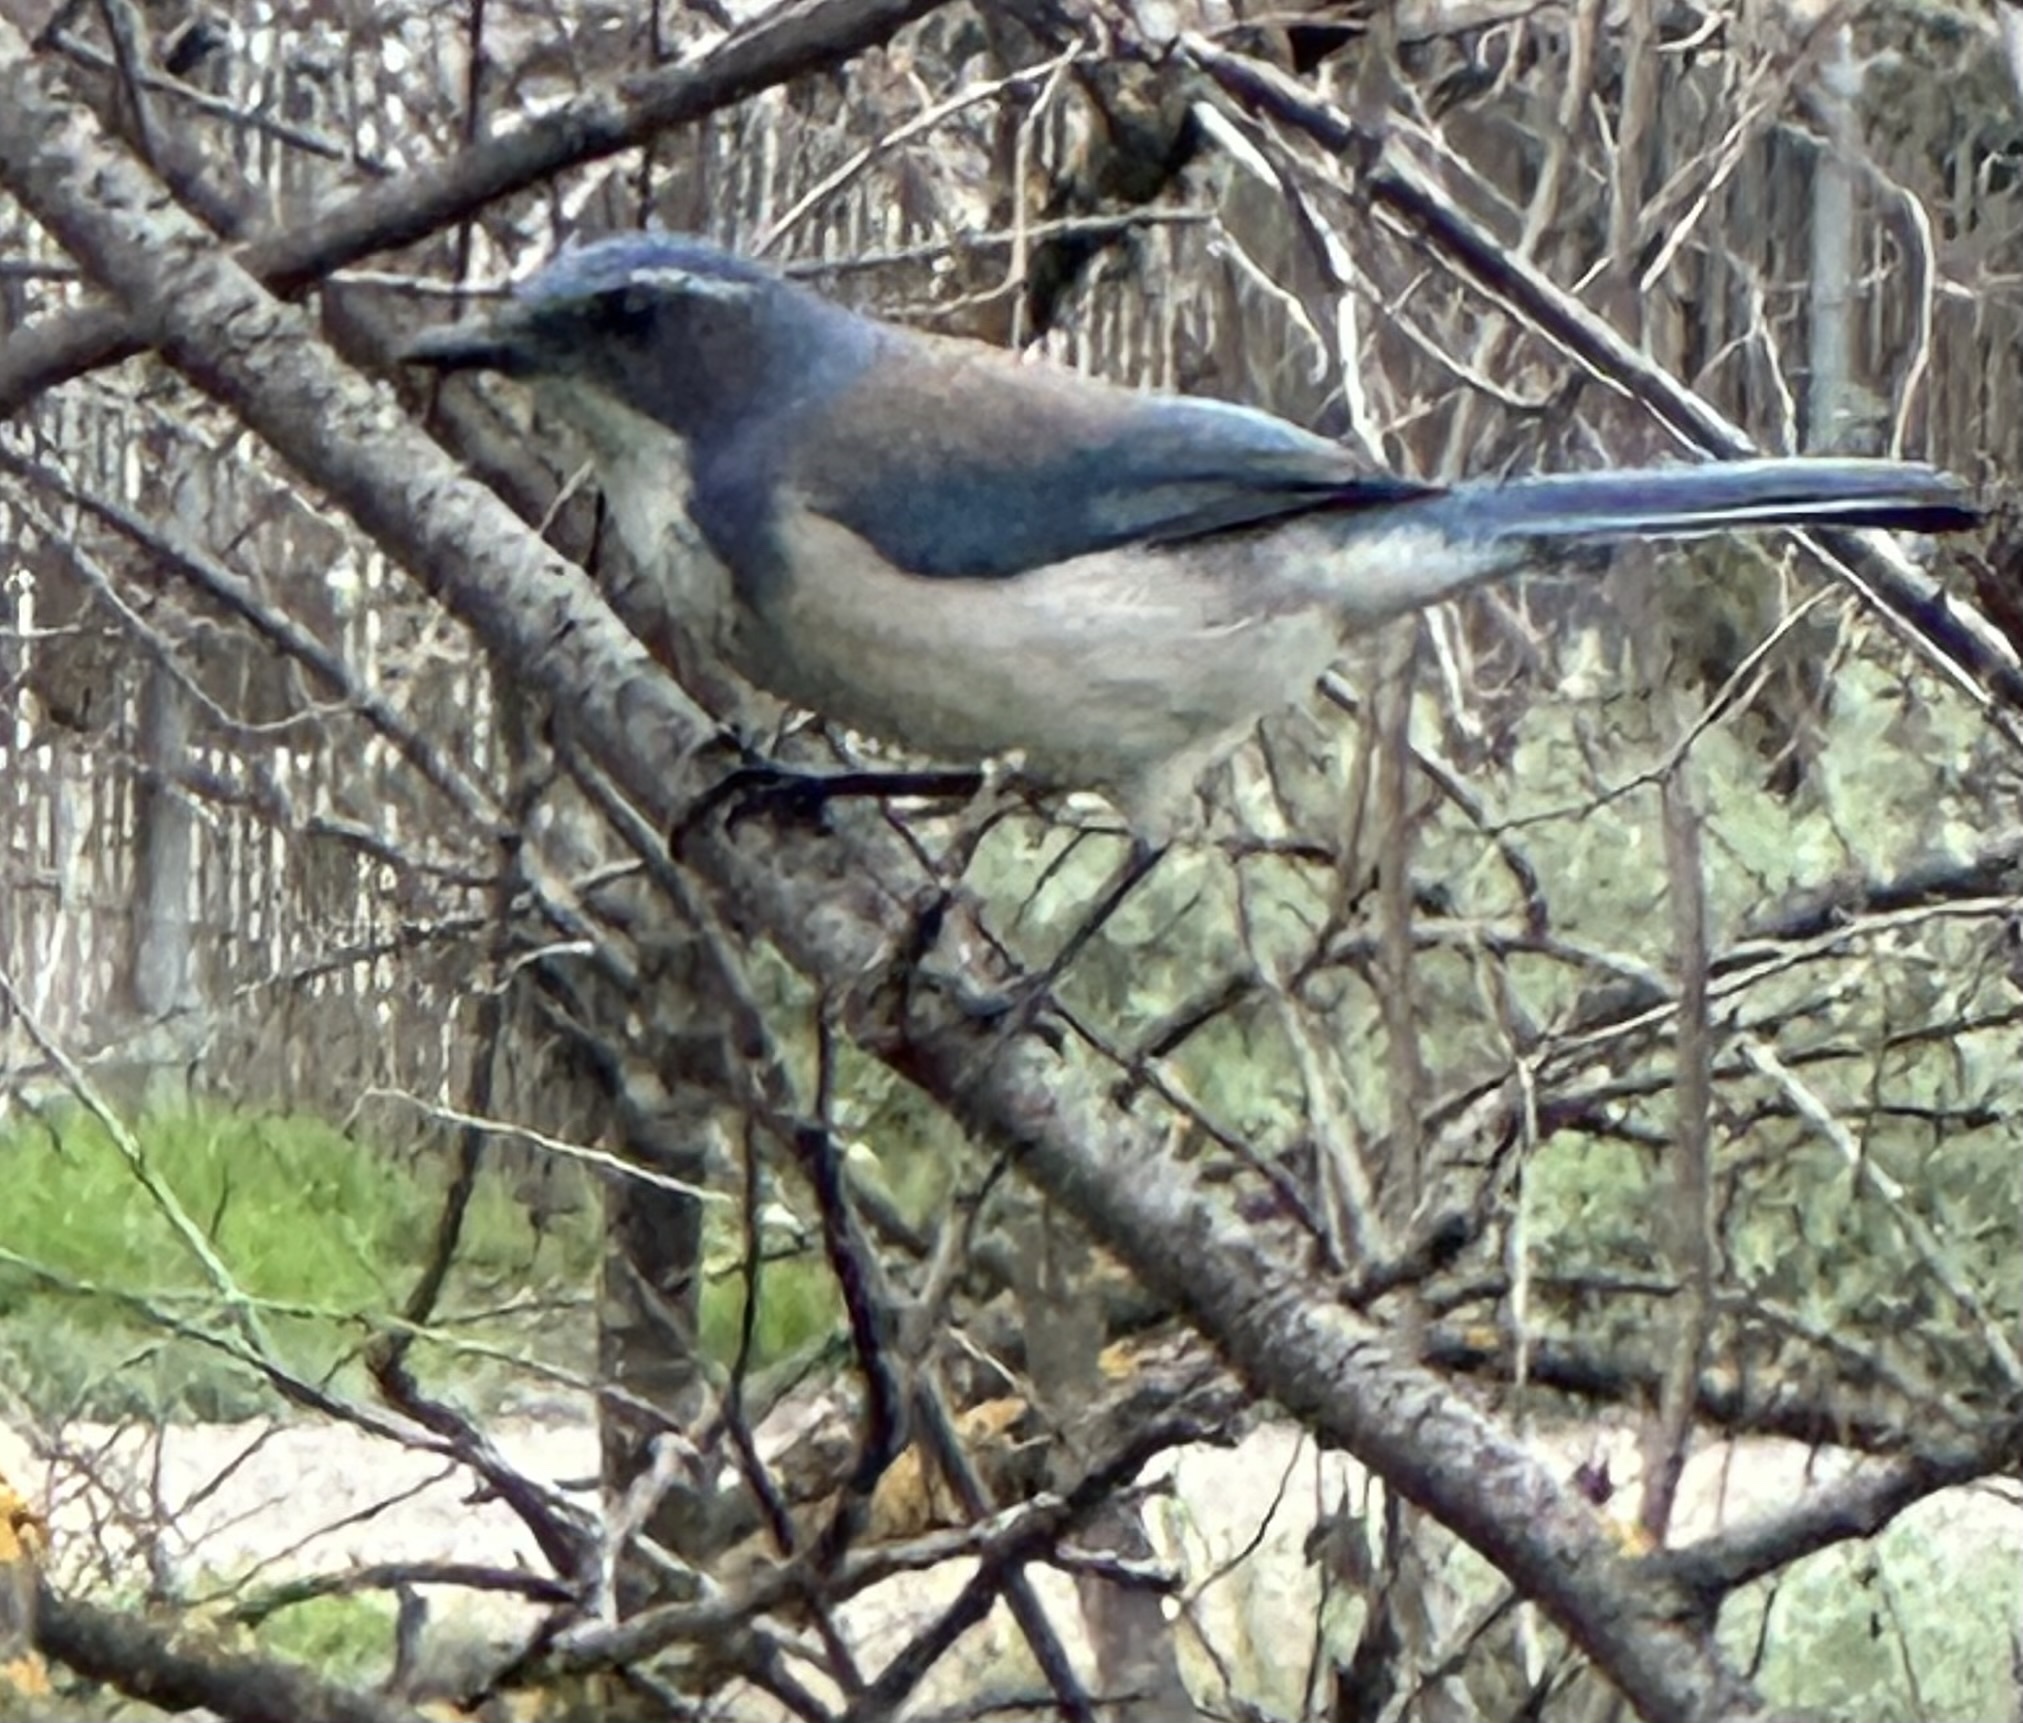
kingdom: Animalia
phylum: Chordata
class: Aves
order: Passeriformes
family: Corvidae
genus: Aphelocoma
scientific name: Aphelocoma californica
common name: California scrub-jay
